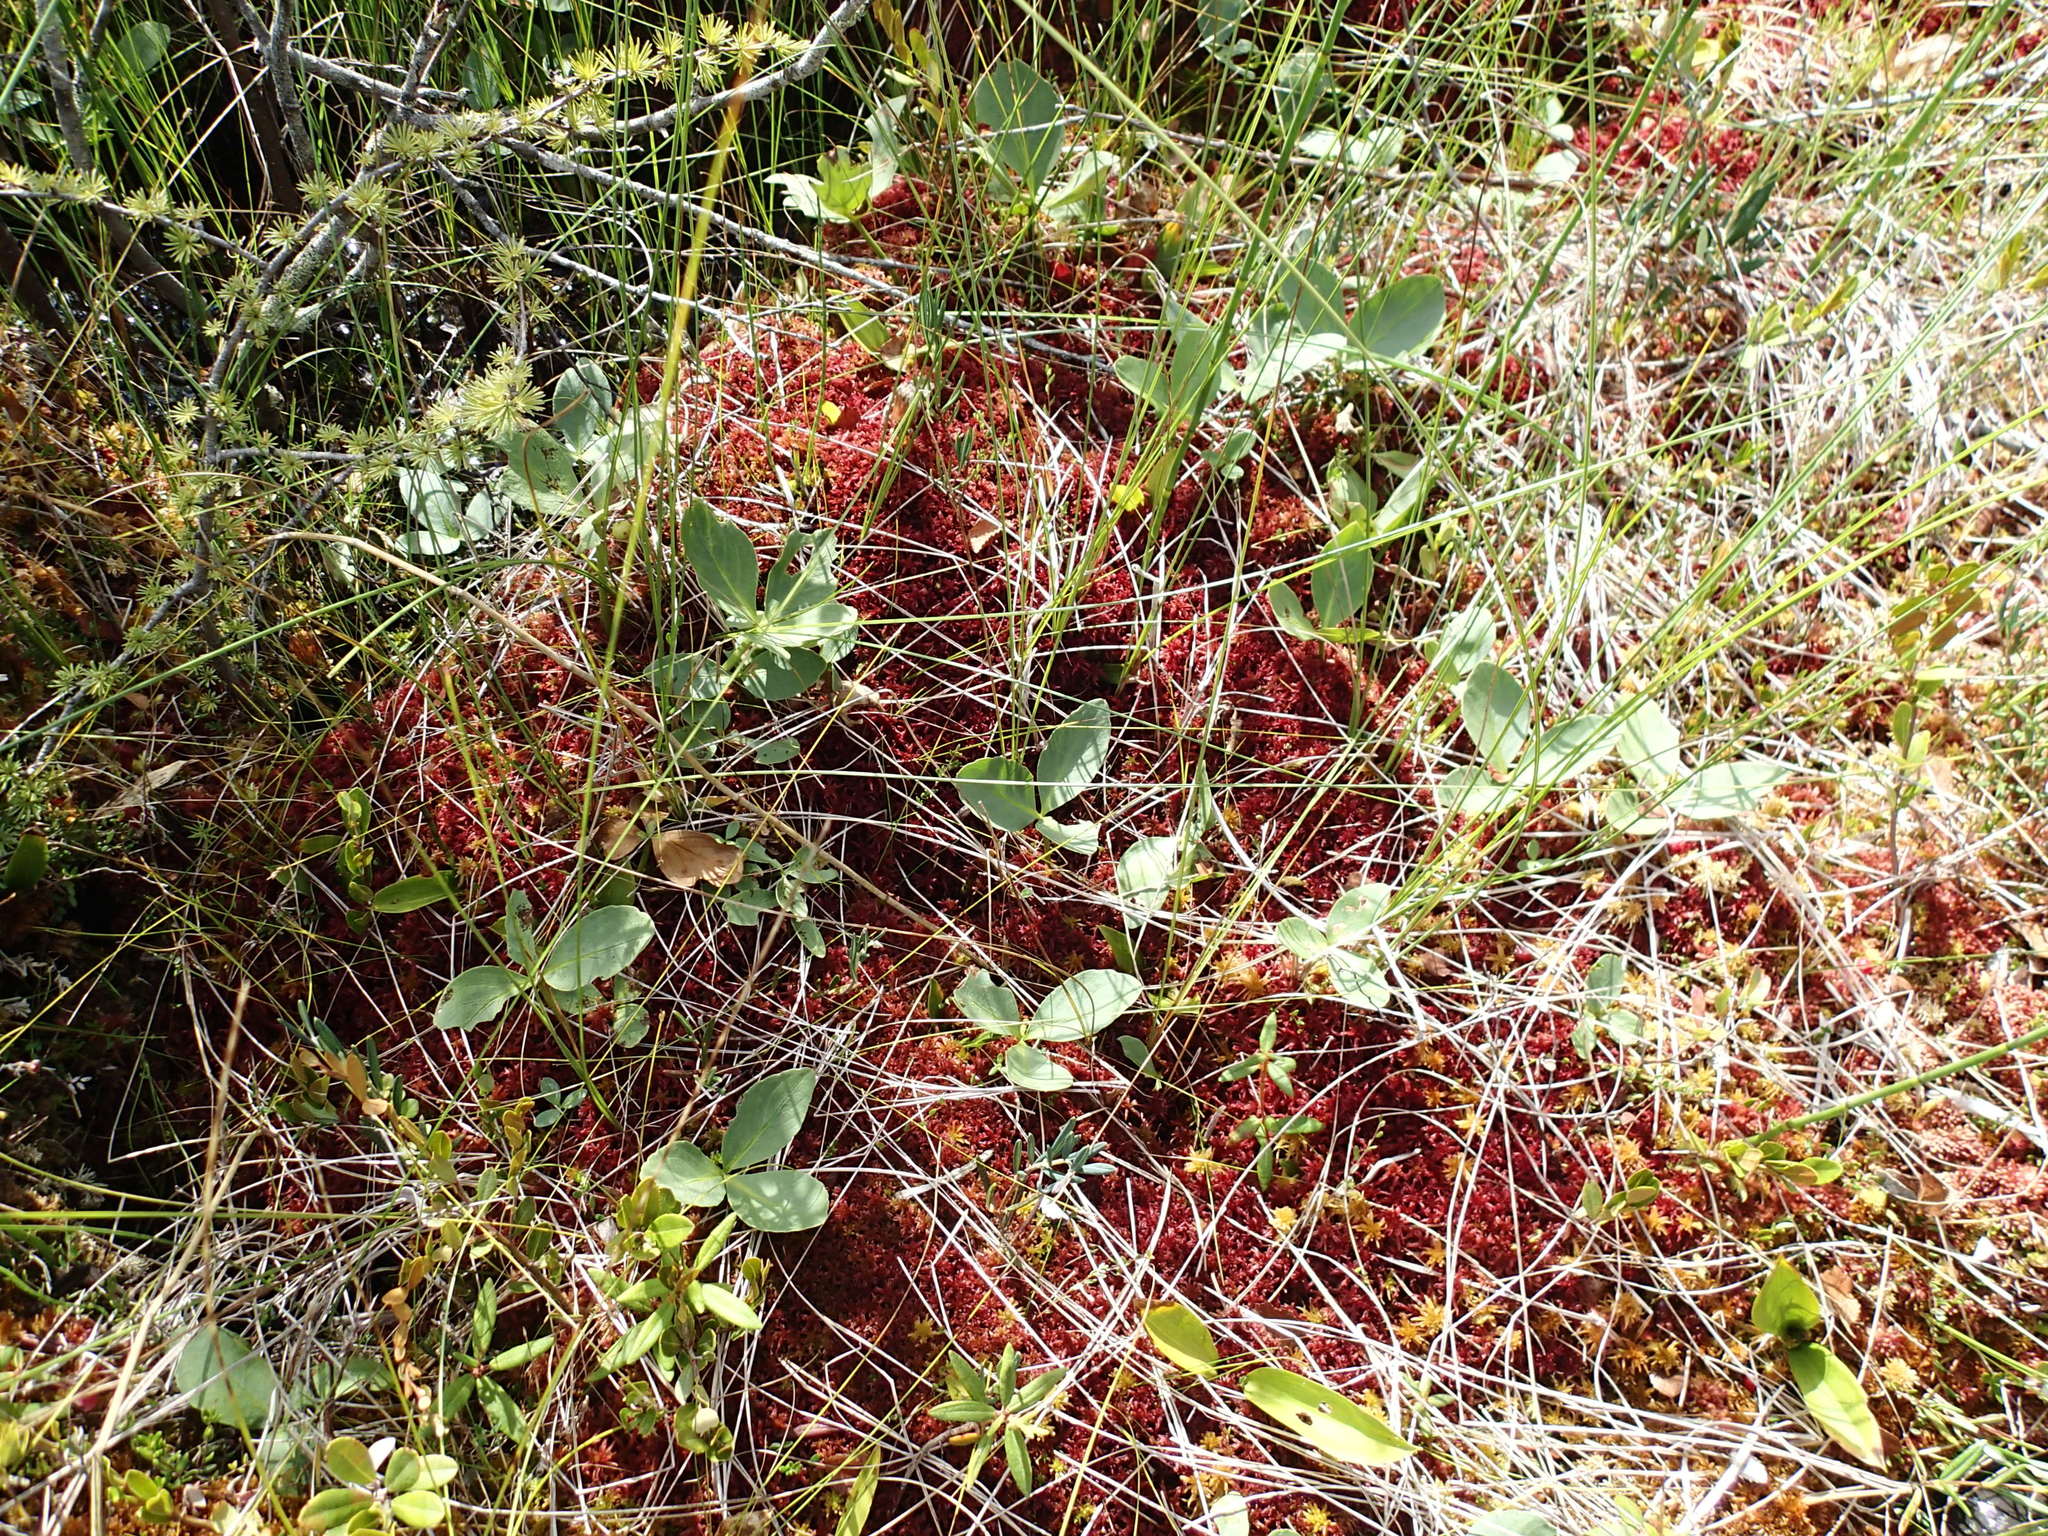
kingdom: Plantae
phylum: Tracheophyta
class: Magnoliopsida
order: Asterales
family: Menyanthaceae
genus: Menyanthes
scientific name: Menyanthes trifoliata
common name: Bogbean
